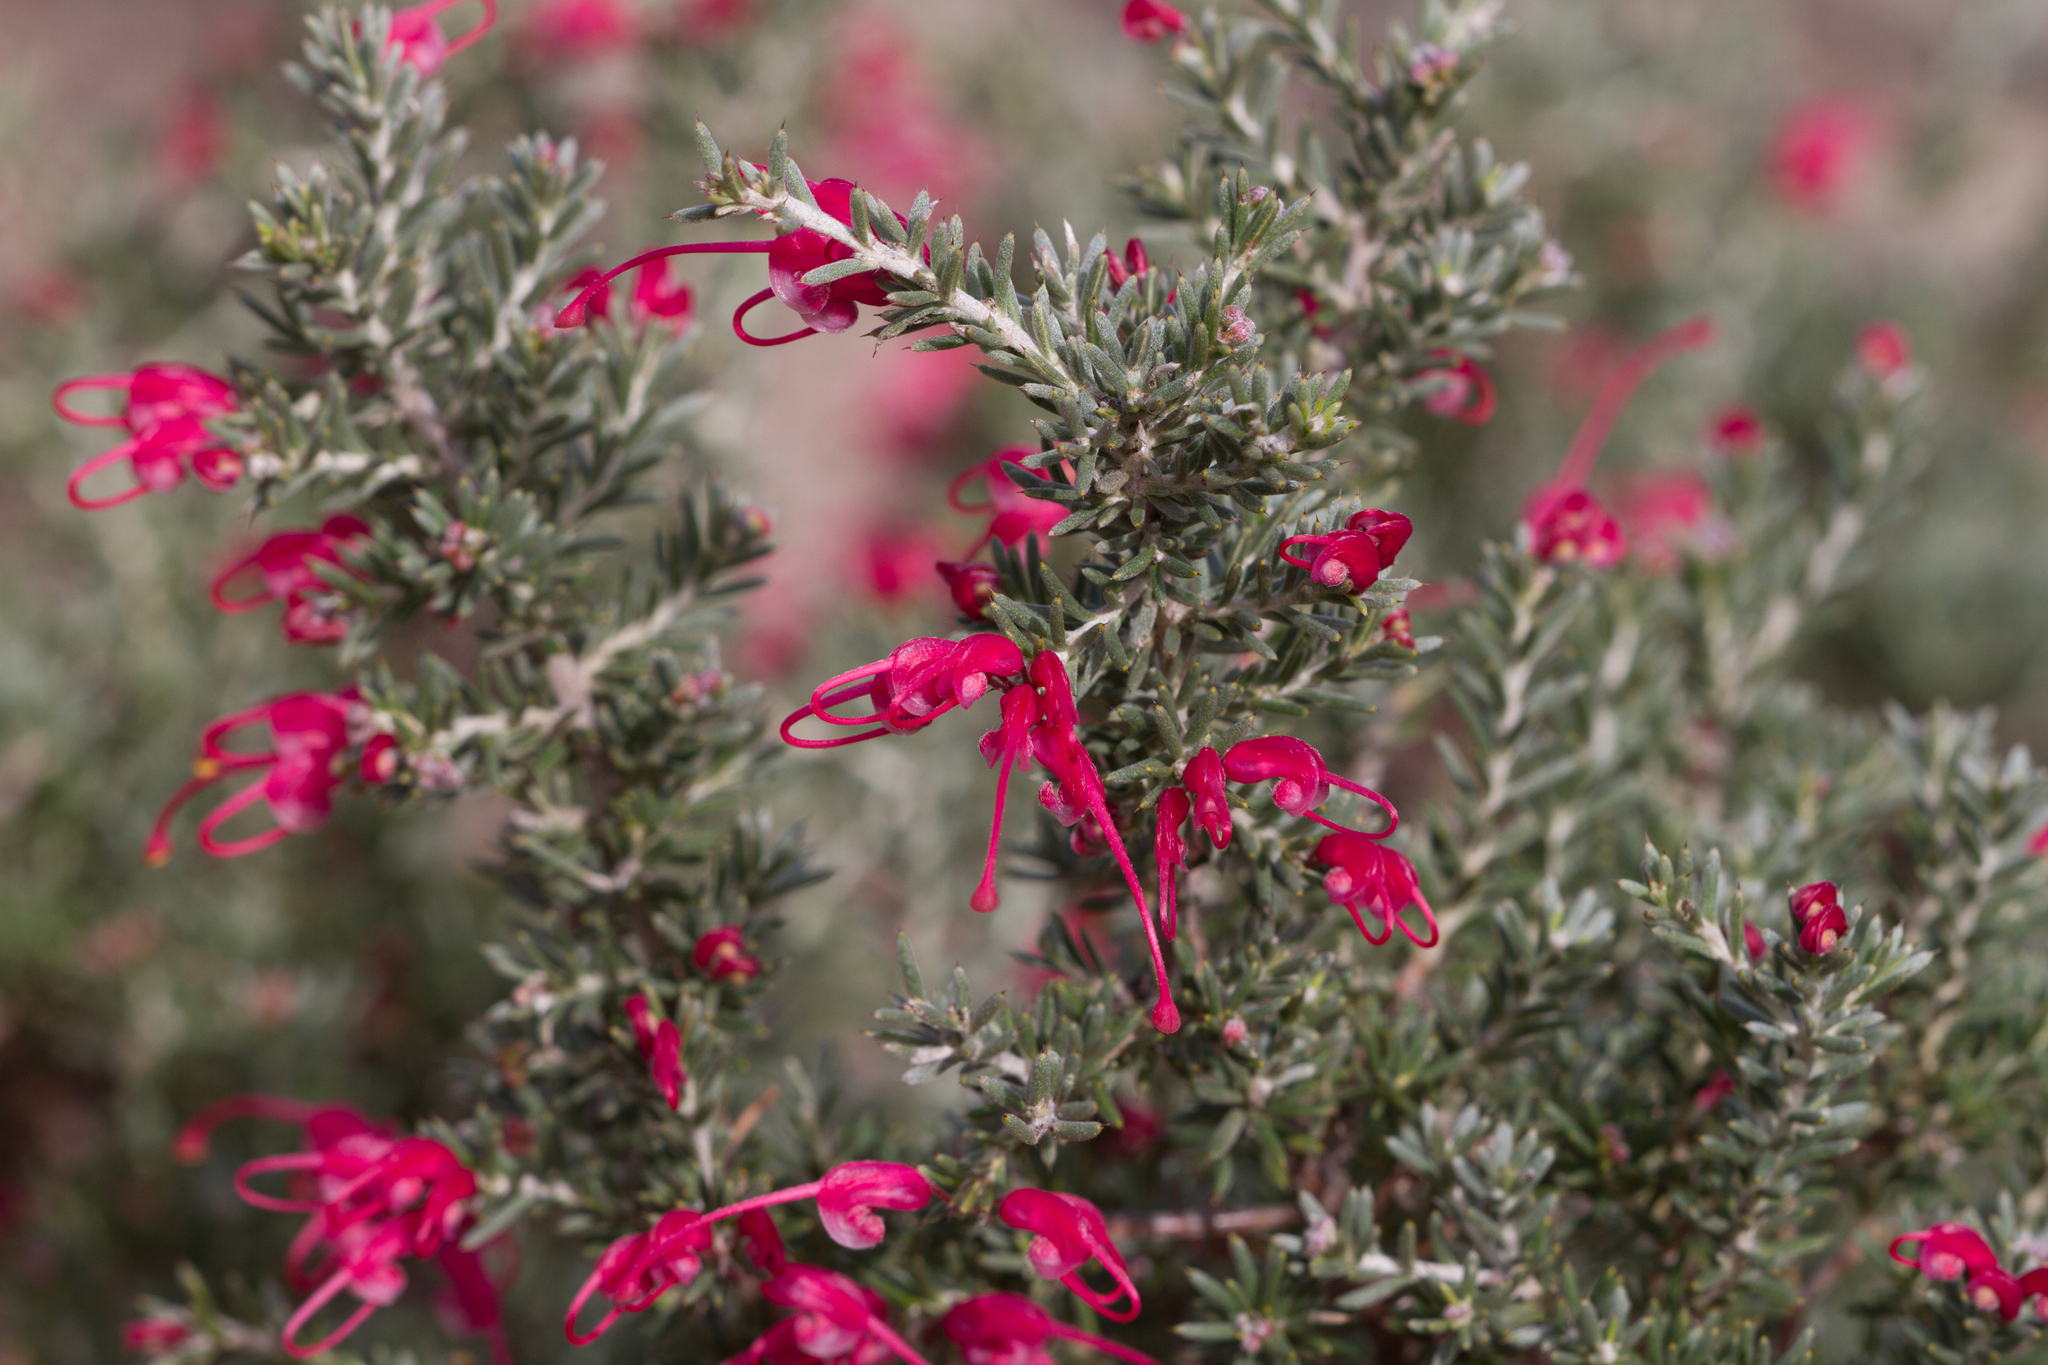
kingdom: Plantae
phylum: Tracheophyta
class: Magnoliopsida
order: Proteales
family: Proteaceae
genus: Grevillea
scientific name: Grevillea lavandulacea
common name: Lavender grevillea
